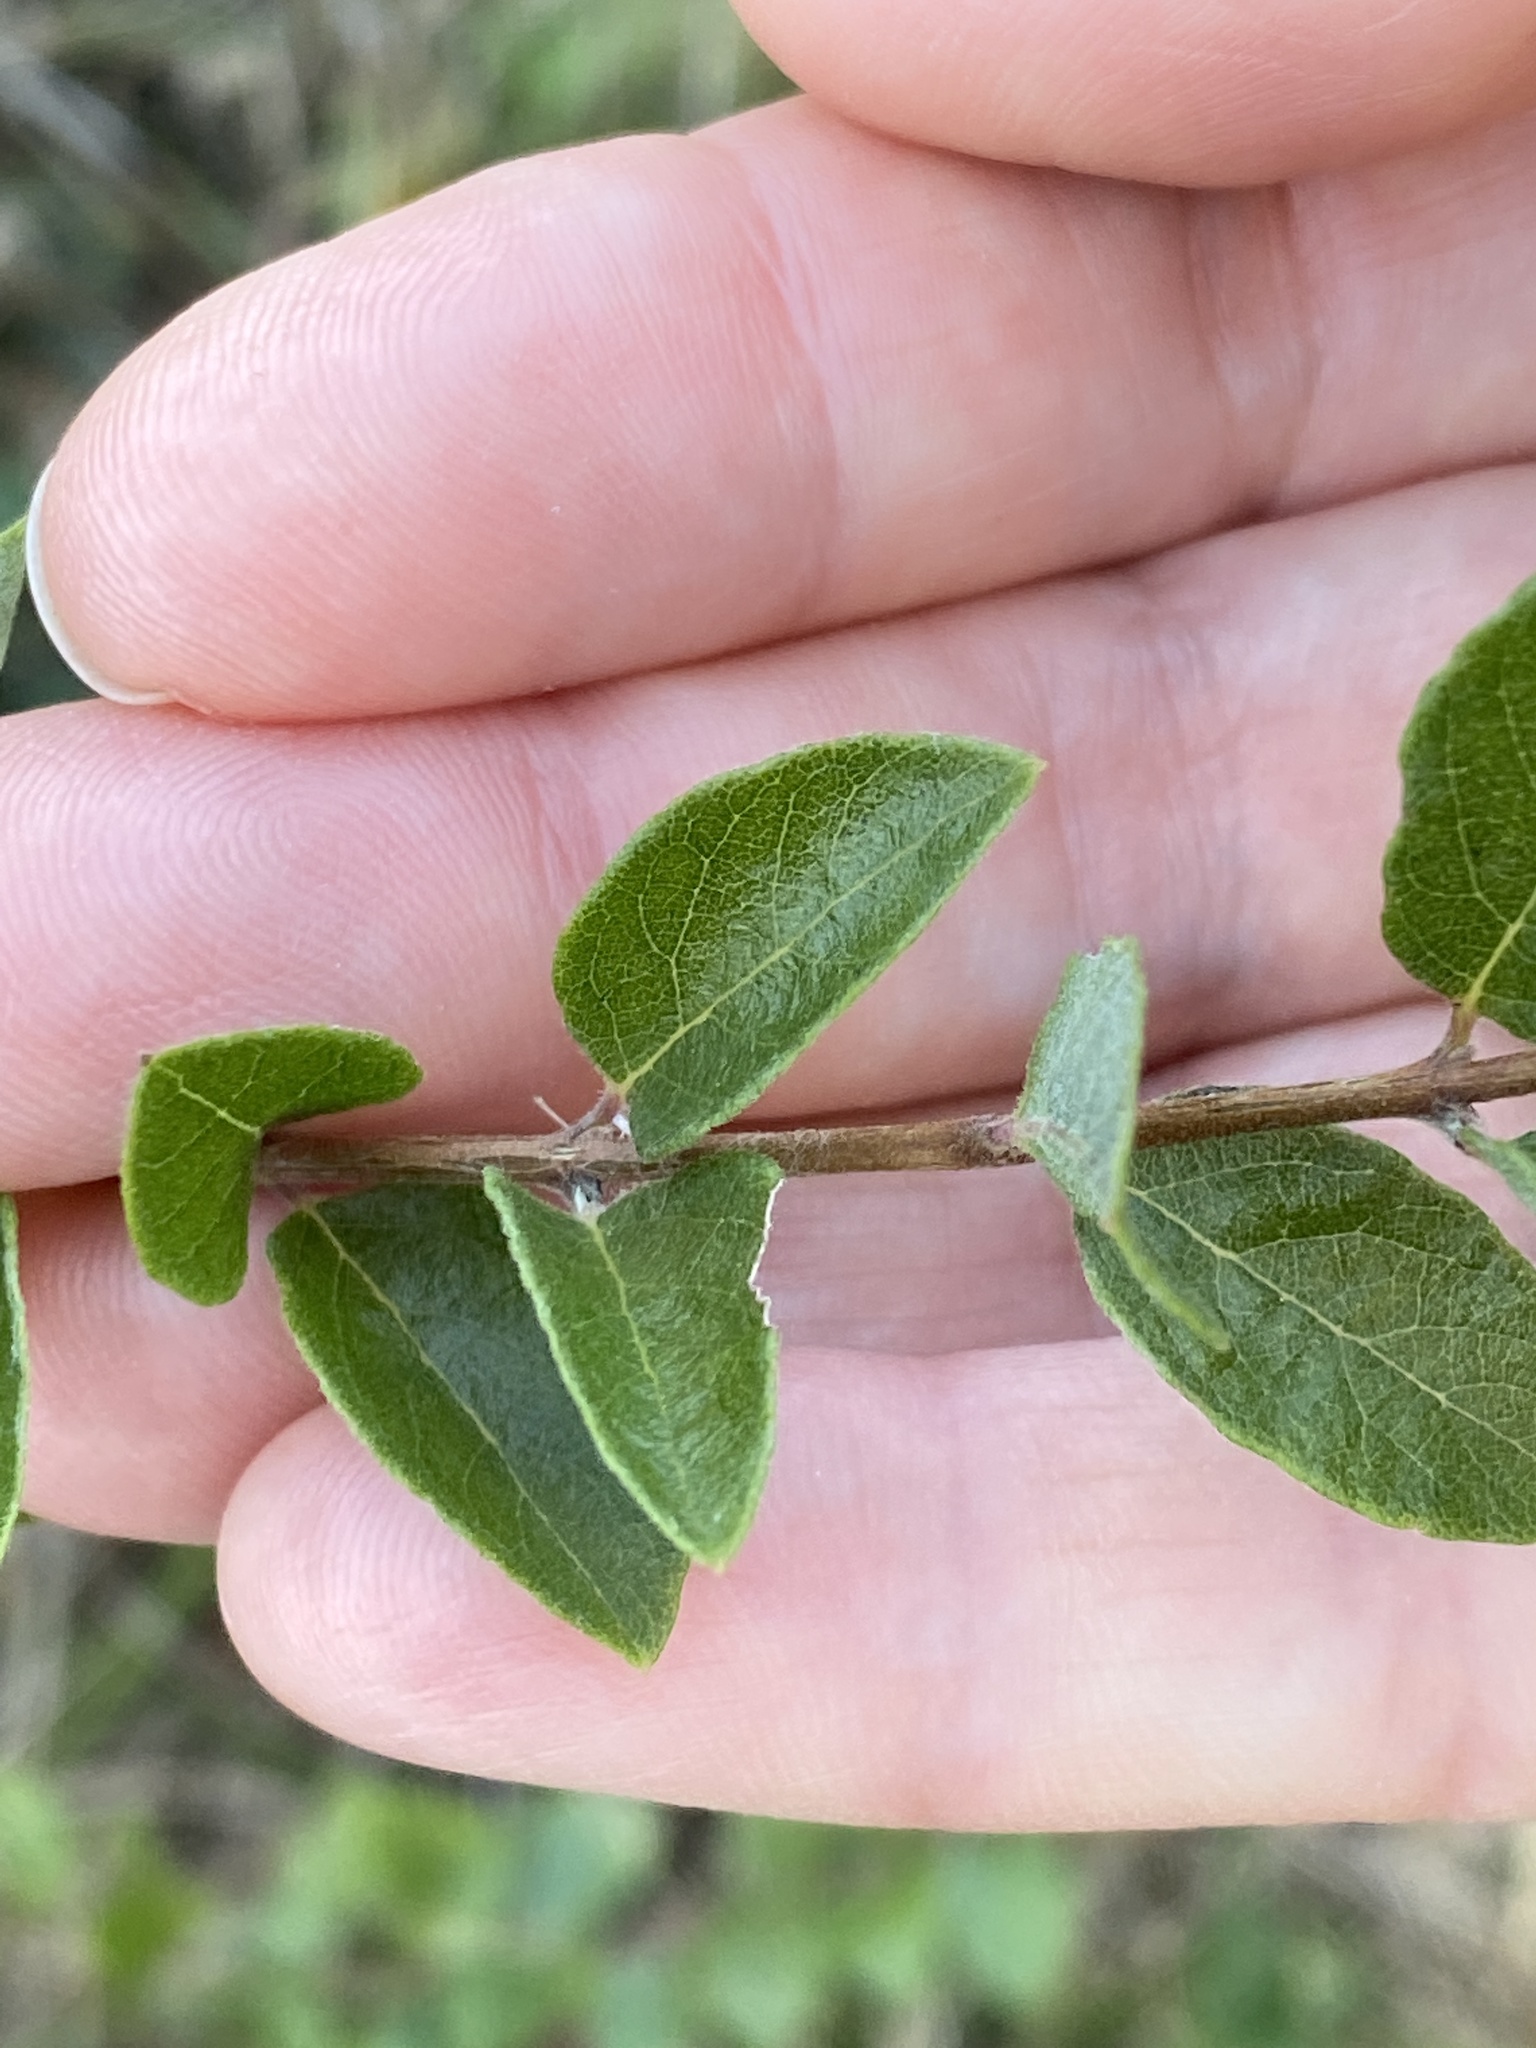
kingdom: Plantae
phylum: Tracheophyta
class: Magnoliopsida
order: Dipsacales
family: Caprifoliaceae
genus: Symphoricarpos
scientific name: Symphoricarpos orbiculatus
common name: Coralberry
